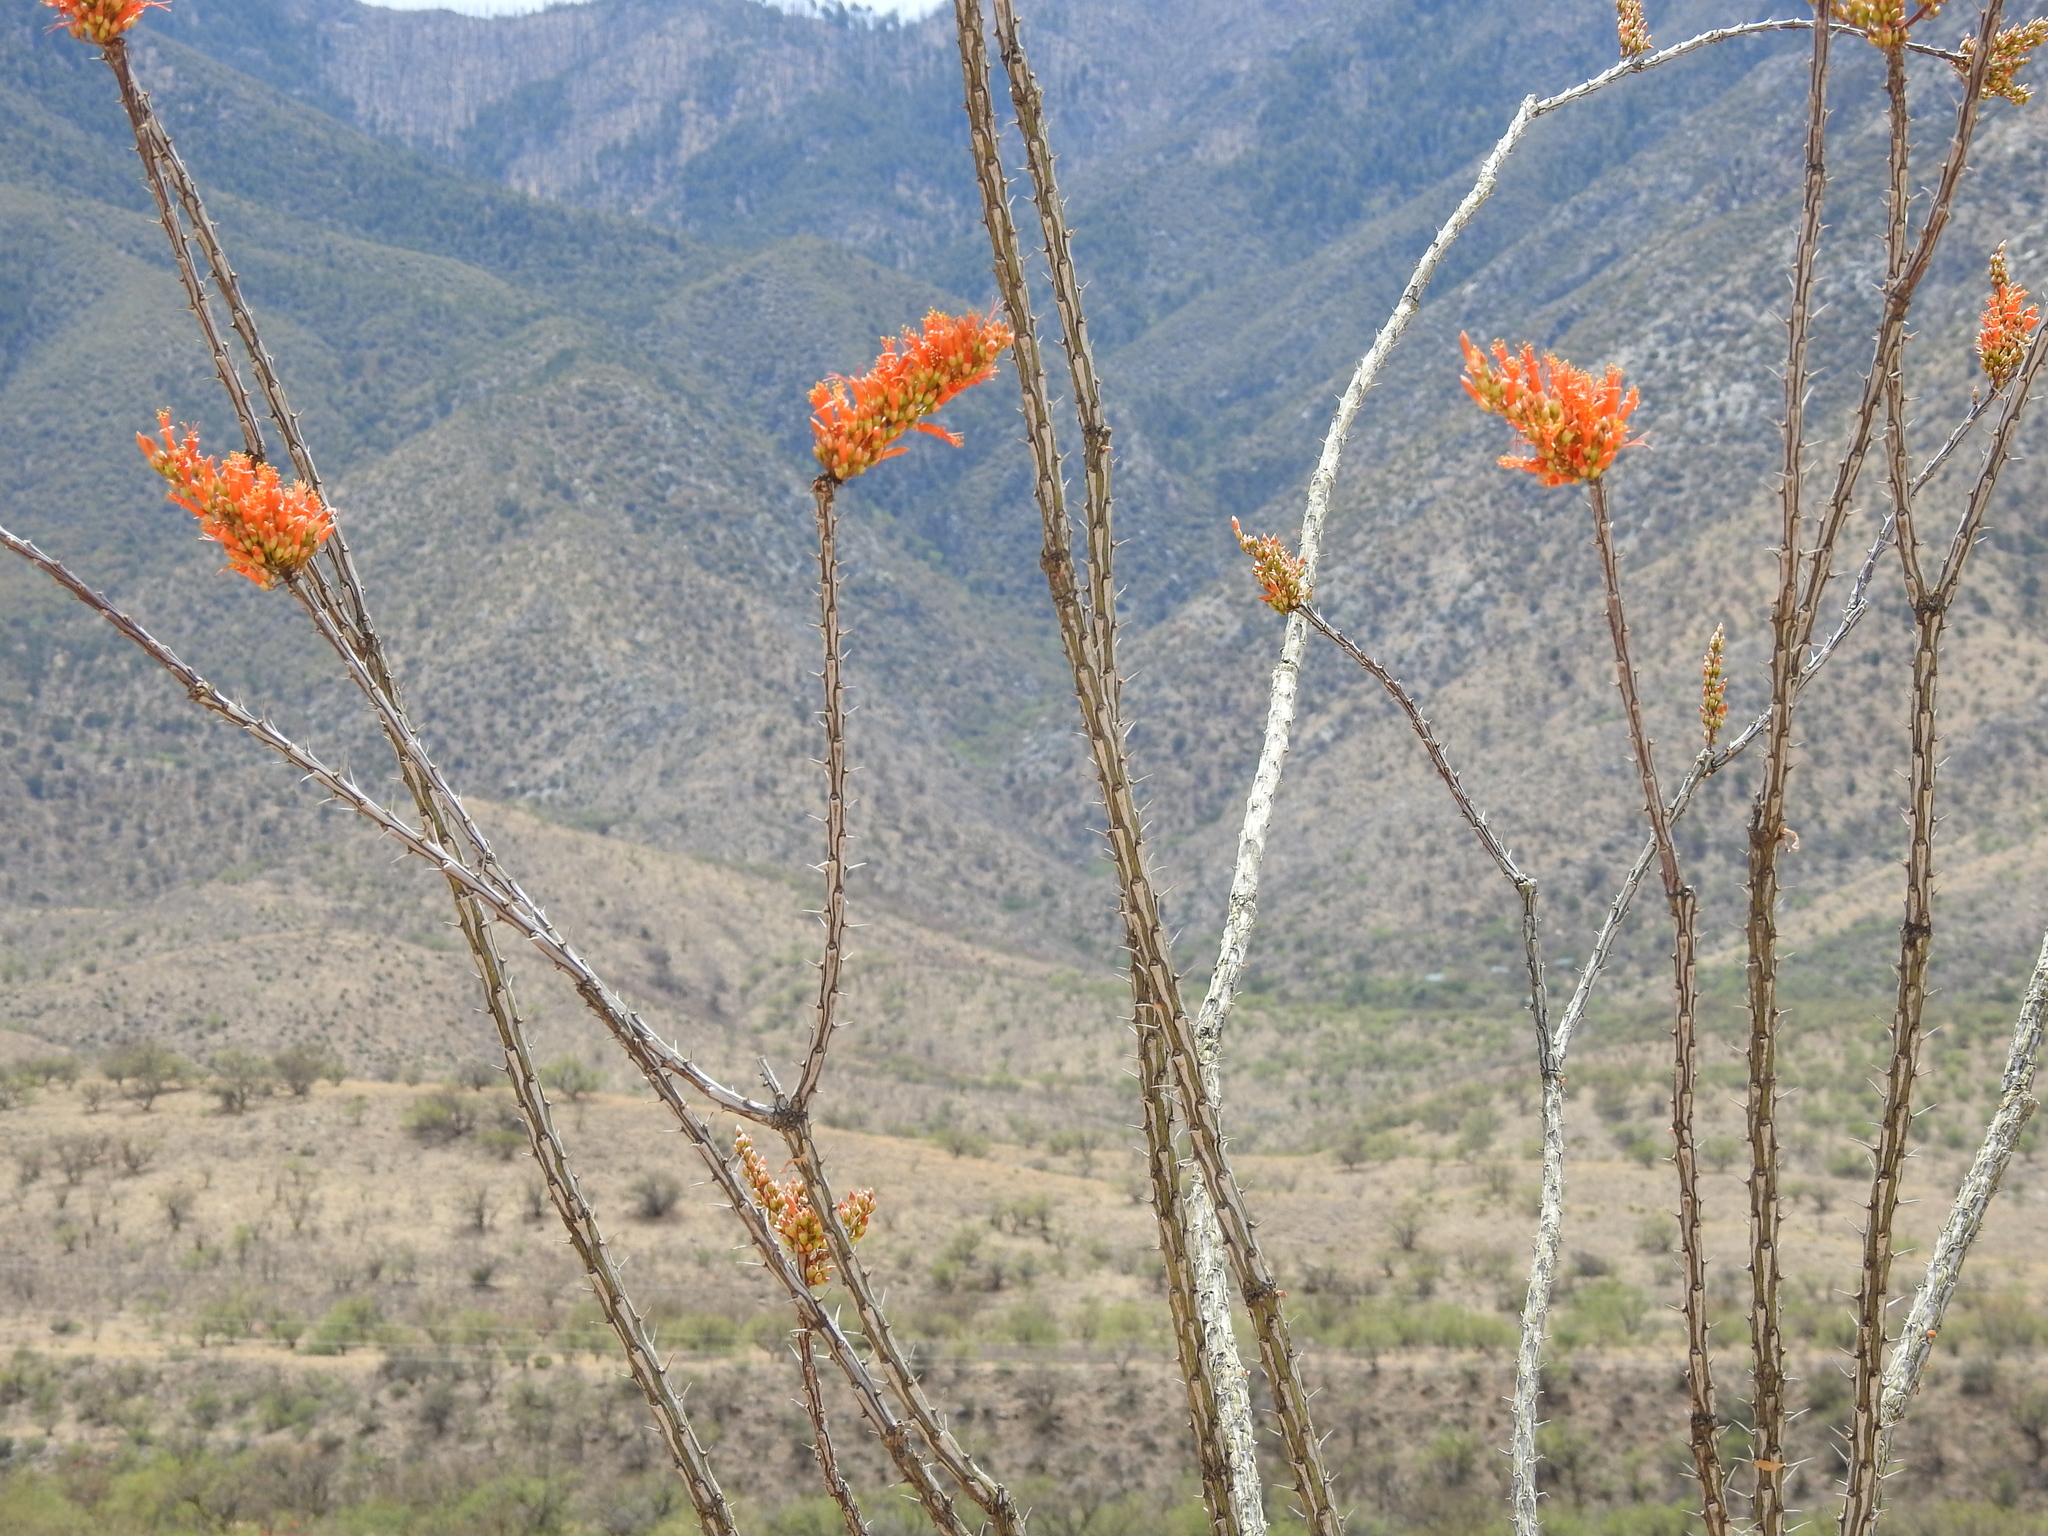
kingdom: Plantae
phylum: Tracheophyta
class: Magnoliopsida
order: Ericales
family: Fouquieriaceae
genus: Fouquieria
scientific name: Fouquieria splendens
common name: Vine-cactus
